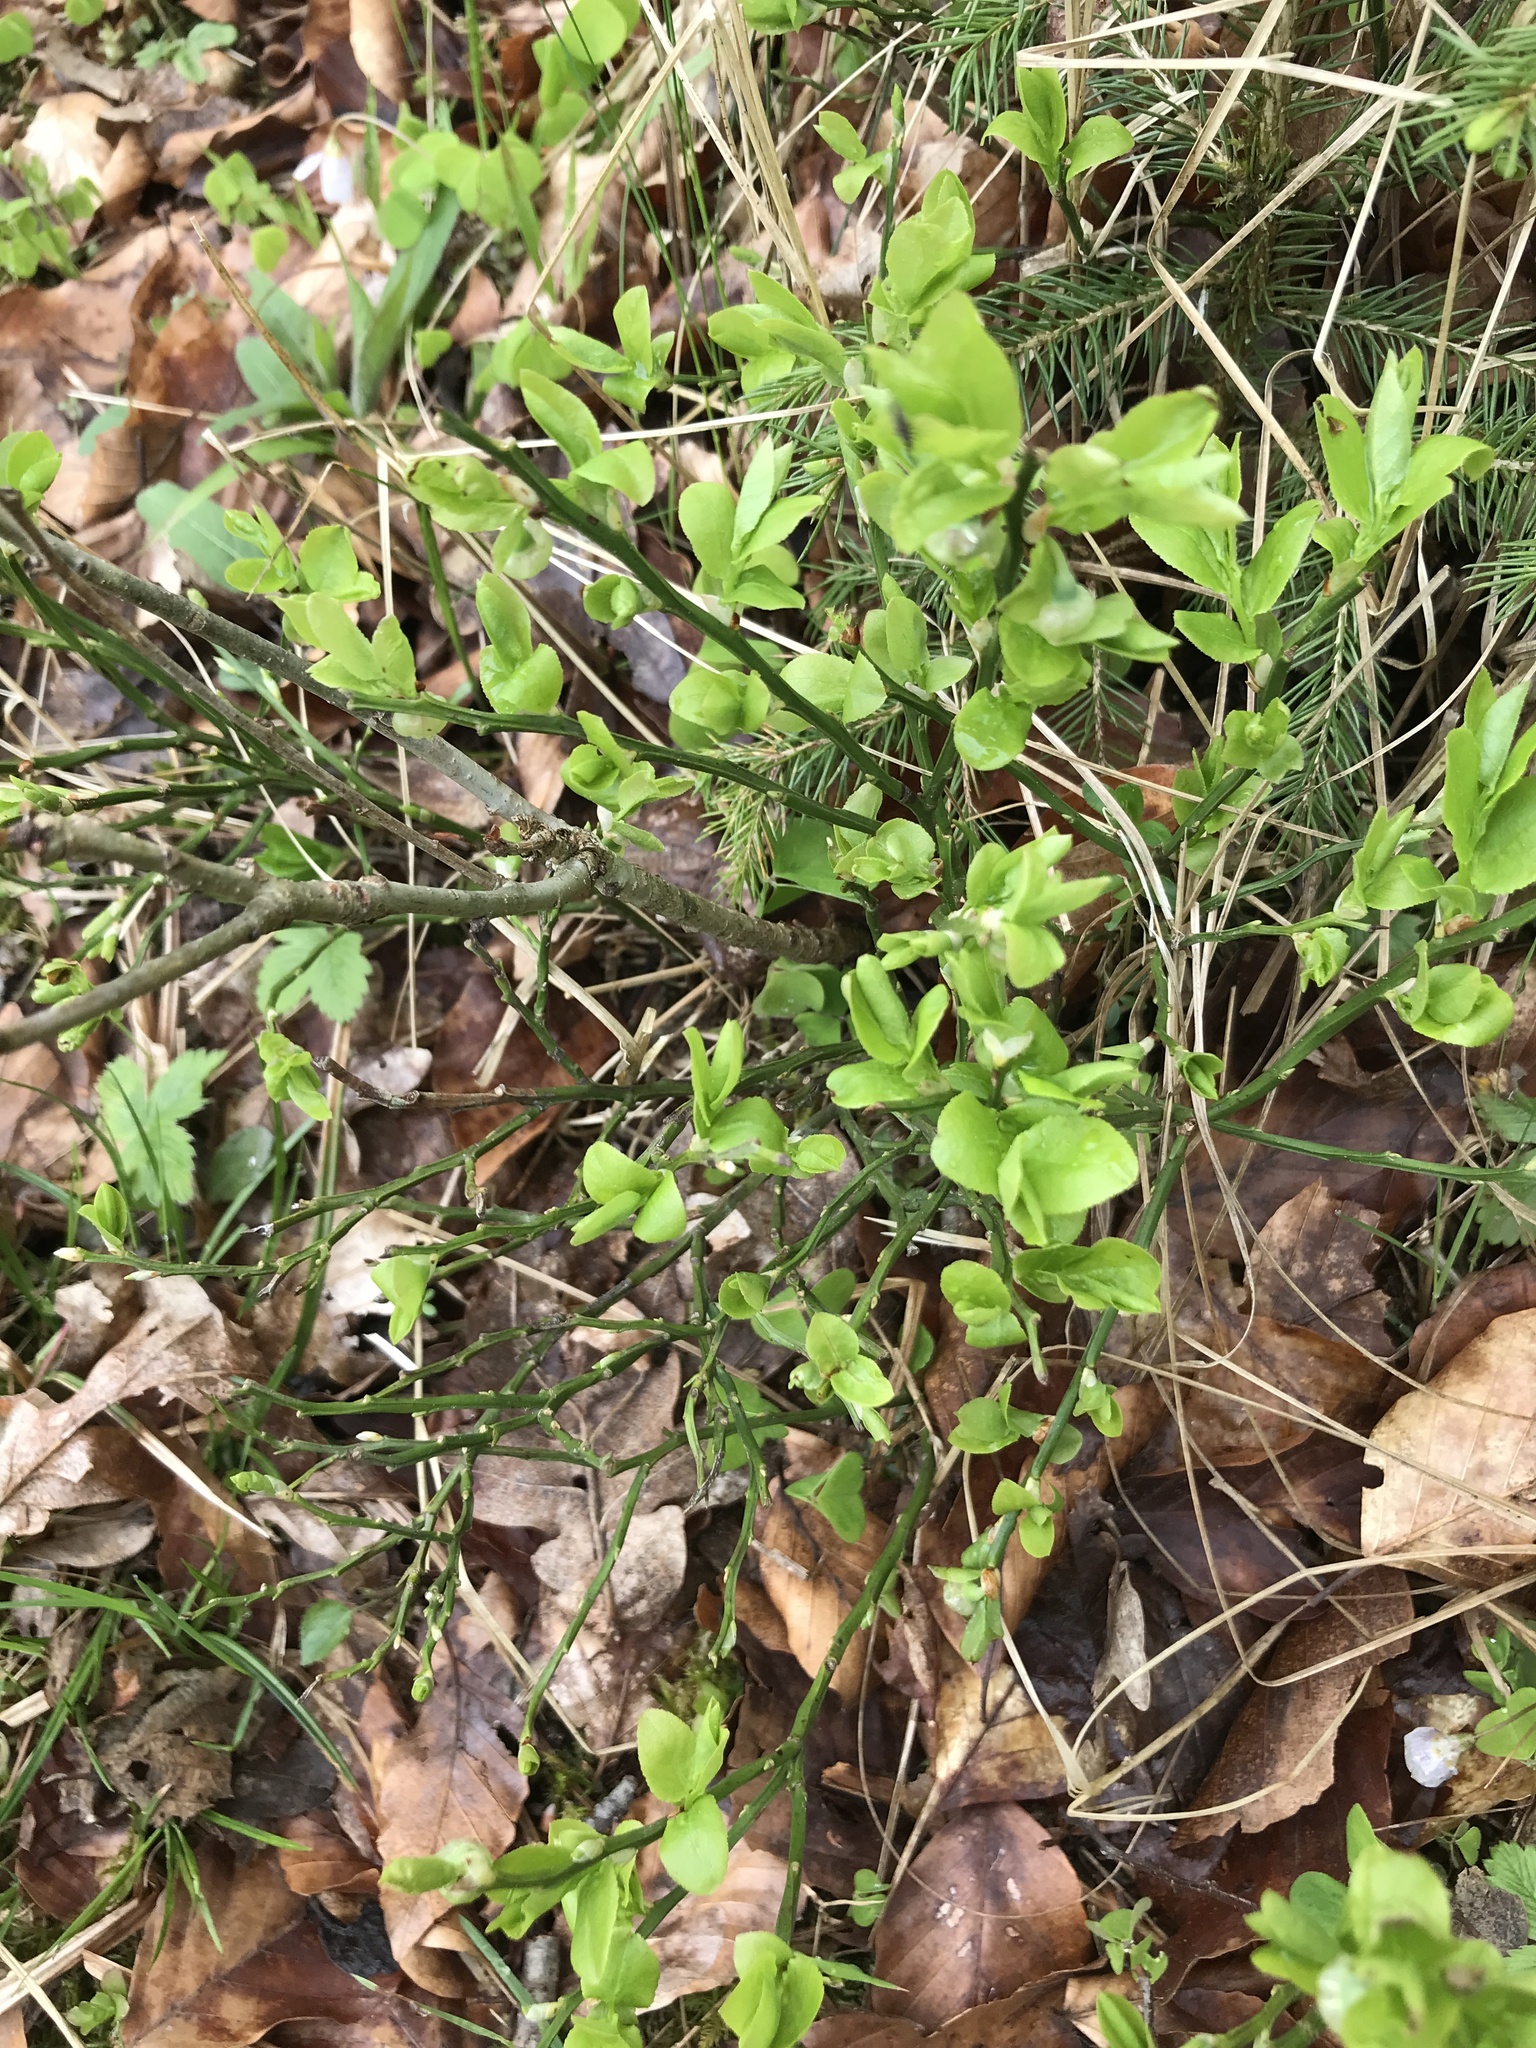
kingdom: Plantae
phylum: Tracheophyta
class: Magnoliopsida
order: Ericales
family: Ericaceae
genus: Vaccinium
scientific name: Vaccinium myrtillus
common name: Bilberry
